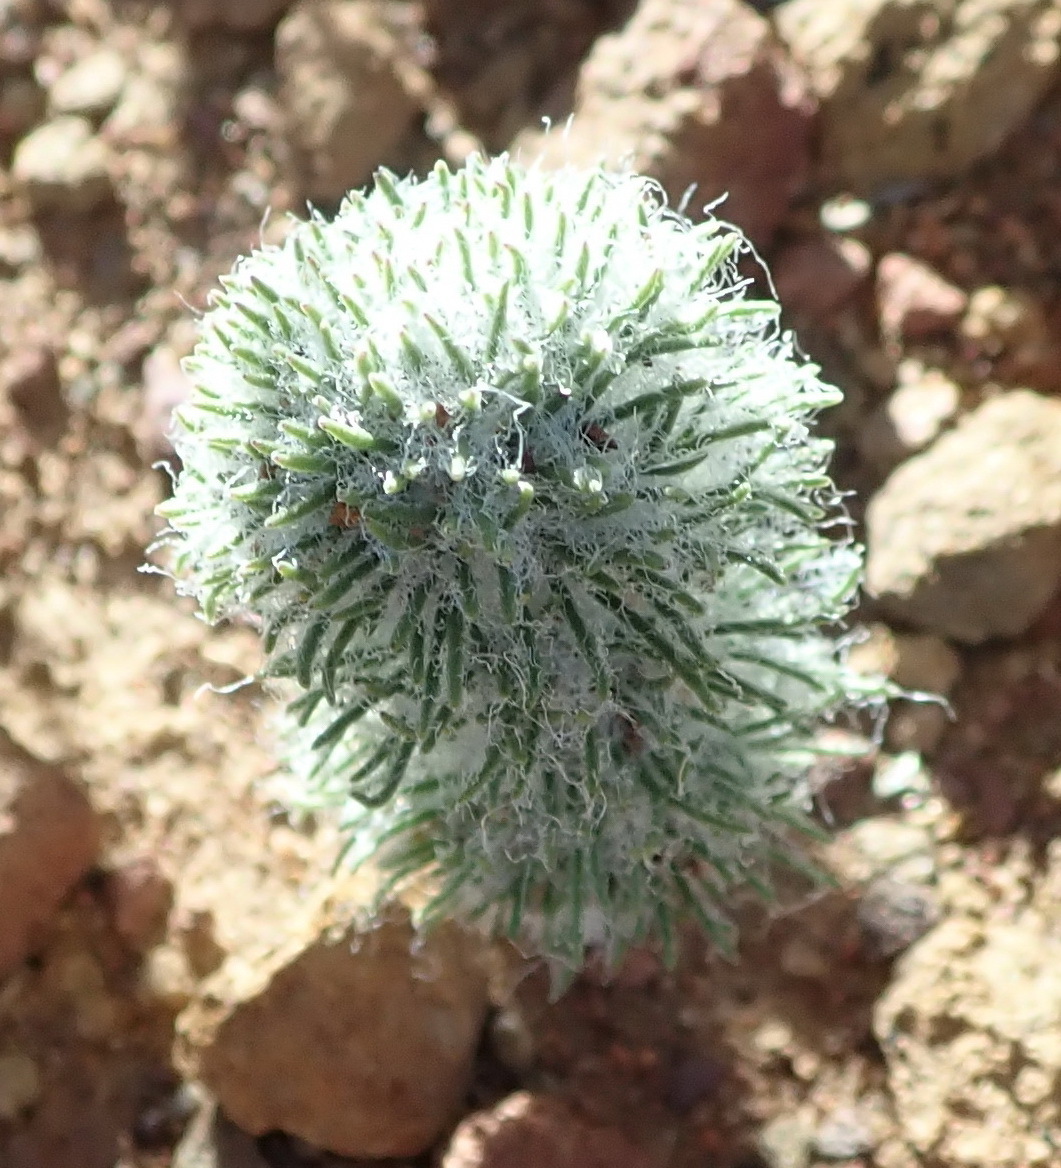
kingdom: Plantae
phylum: Tracheophyta
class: Liliopsida
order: Asparagales
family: Asparagaceae
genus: Eriospermum
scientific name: Eriospermum paradoxum
